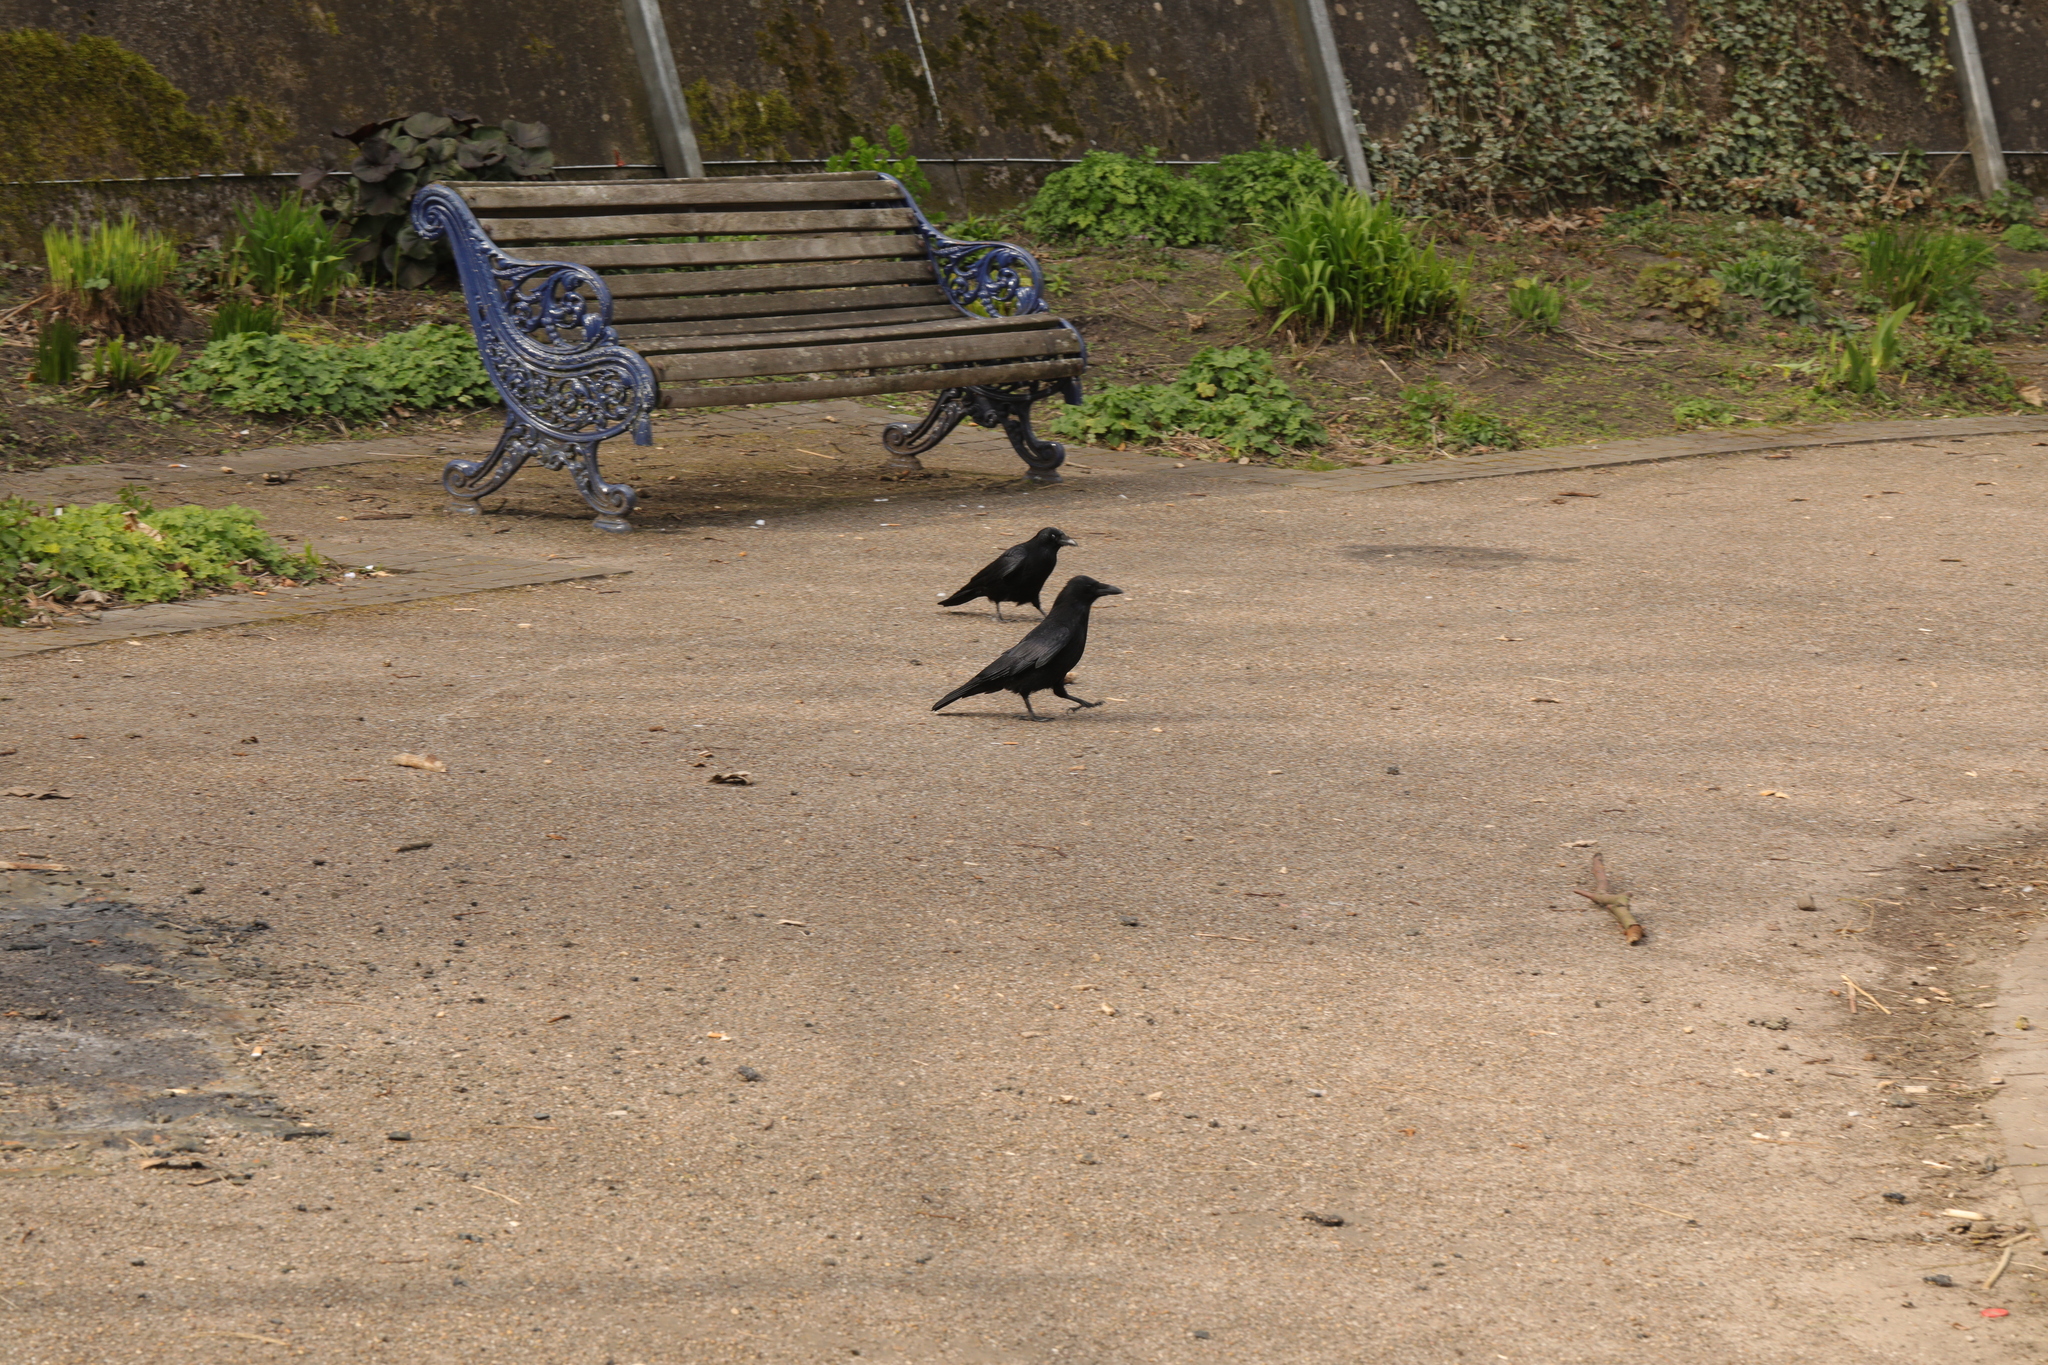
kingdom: Animalia
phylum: Chordata
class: Aves
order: Passeriformes
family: Corvidae
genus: Corvus
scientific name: Corvus corone
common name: Carrion crow
